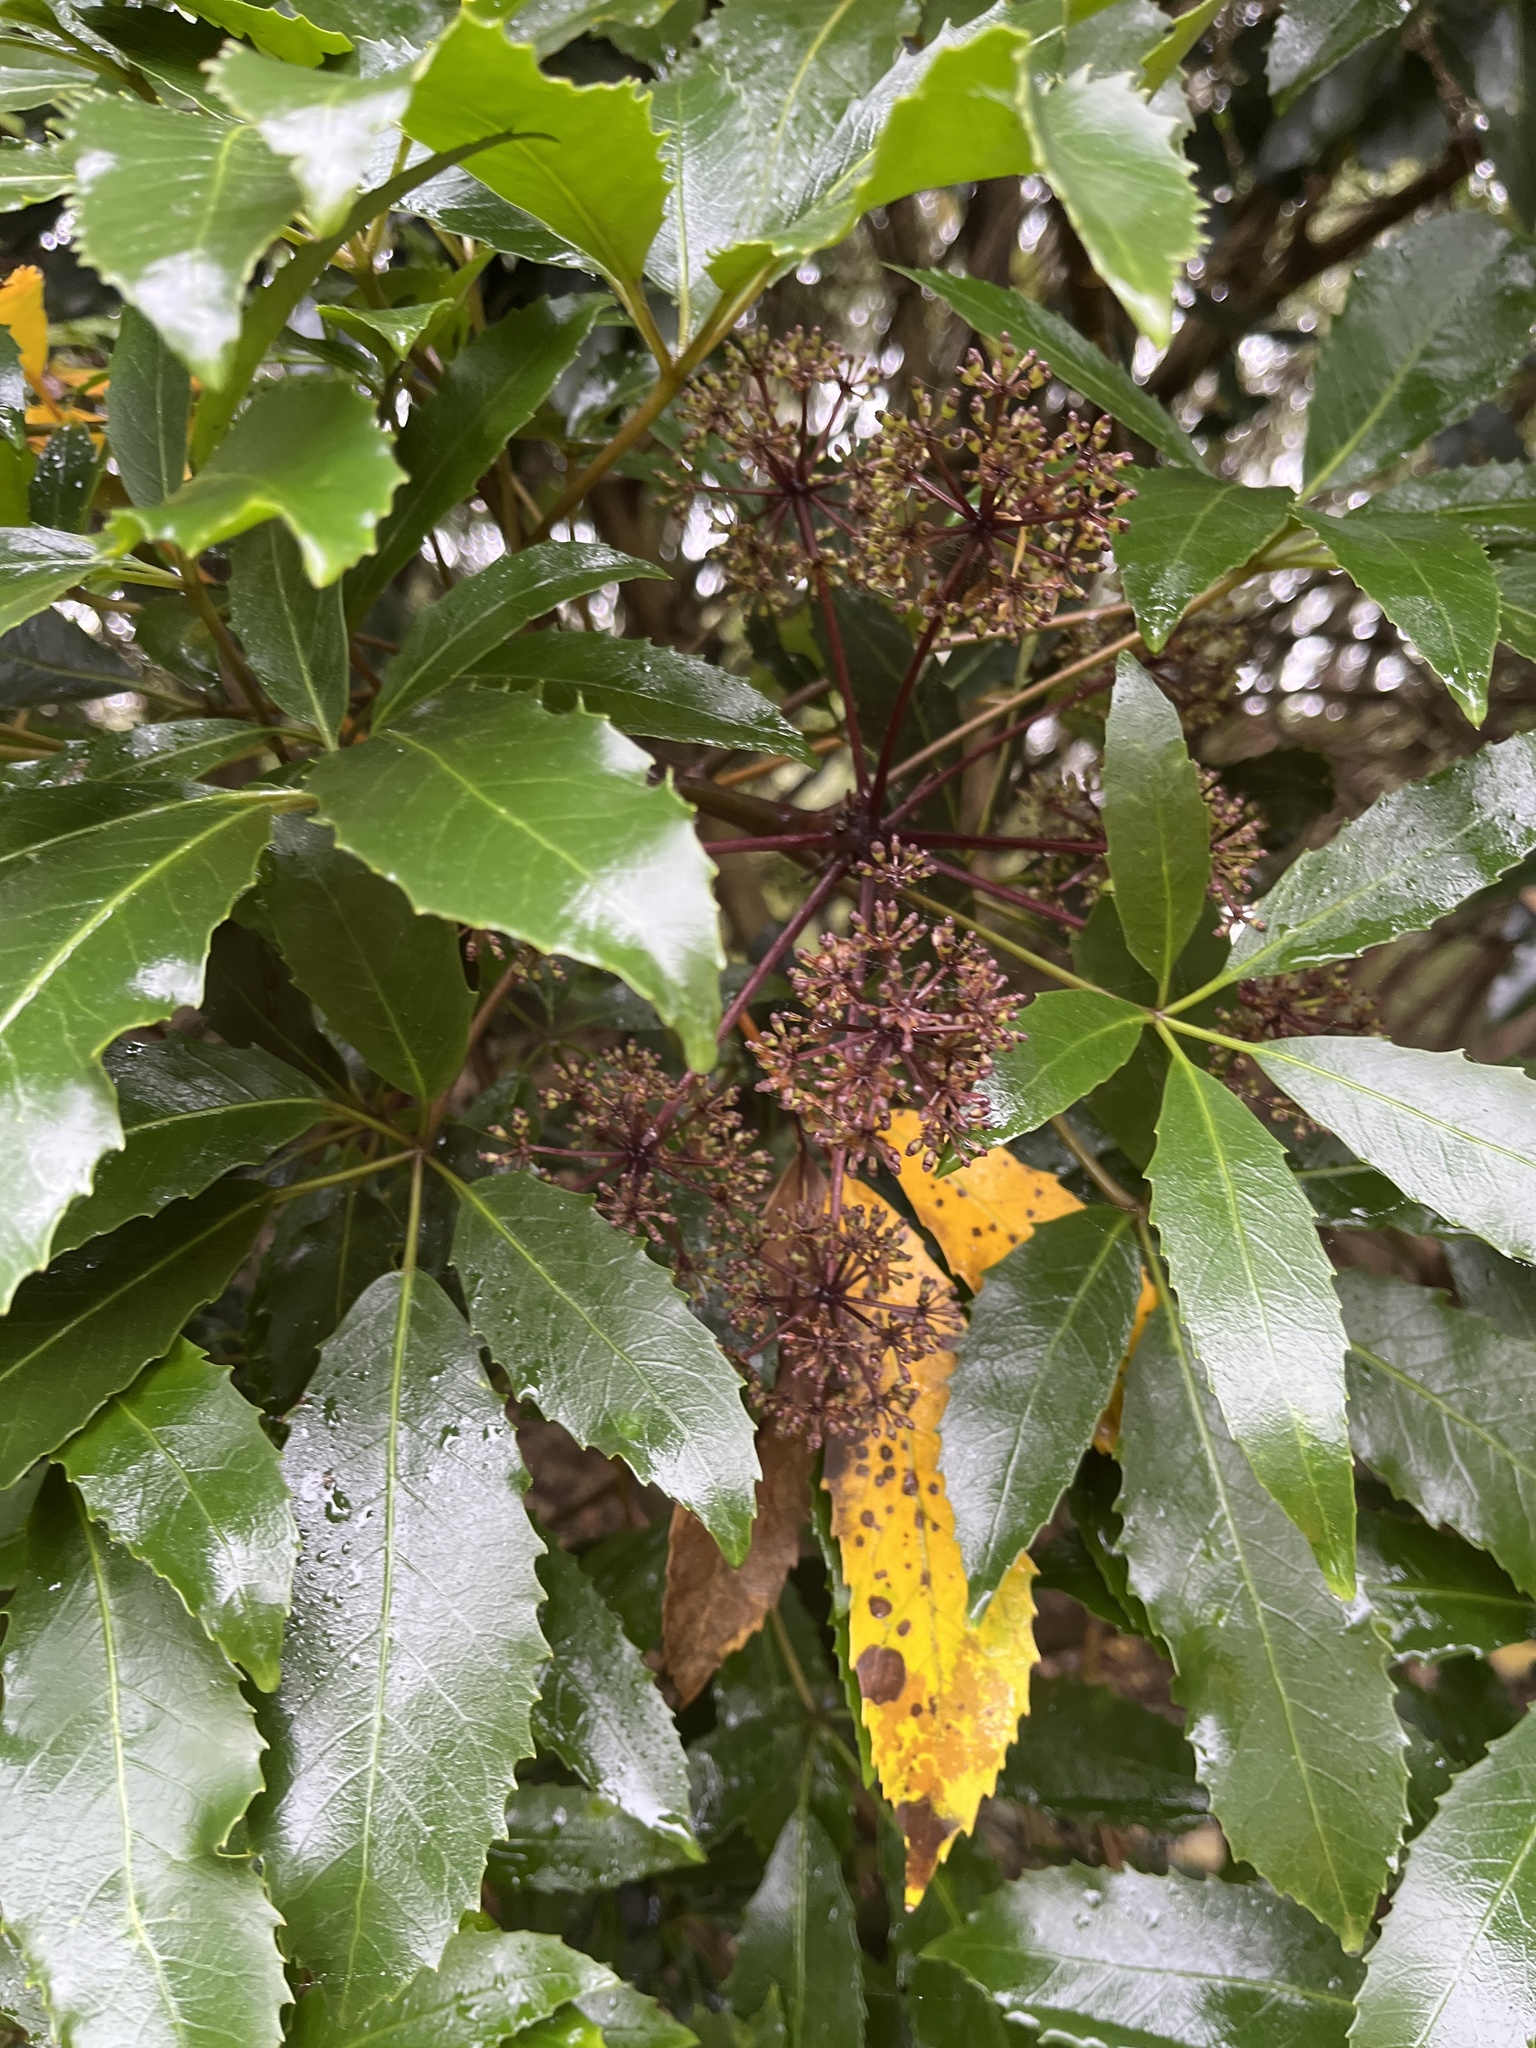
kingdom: Plantae
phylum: Tracheophyta
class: Magnoliopsida
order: Apiales
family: Araliaceae
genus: Neopanax
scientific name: Neopanax arboreus
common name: Five-fingers
